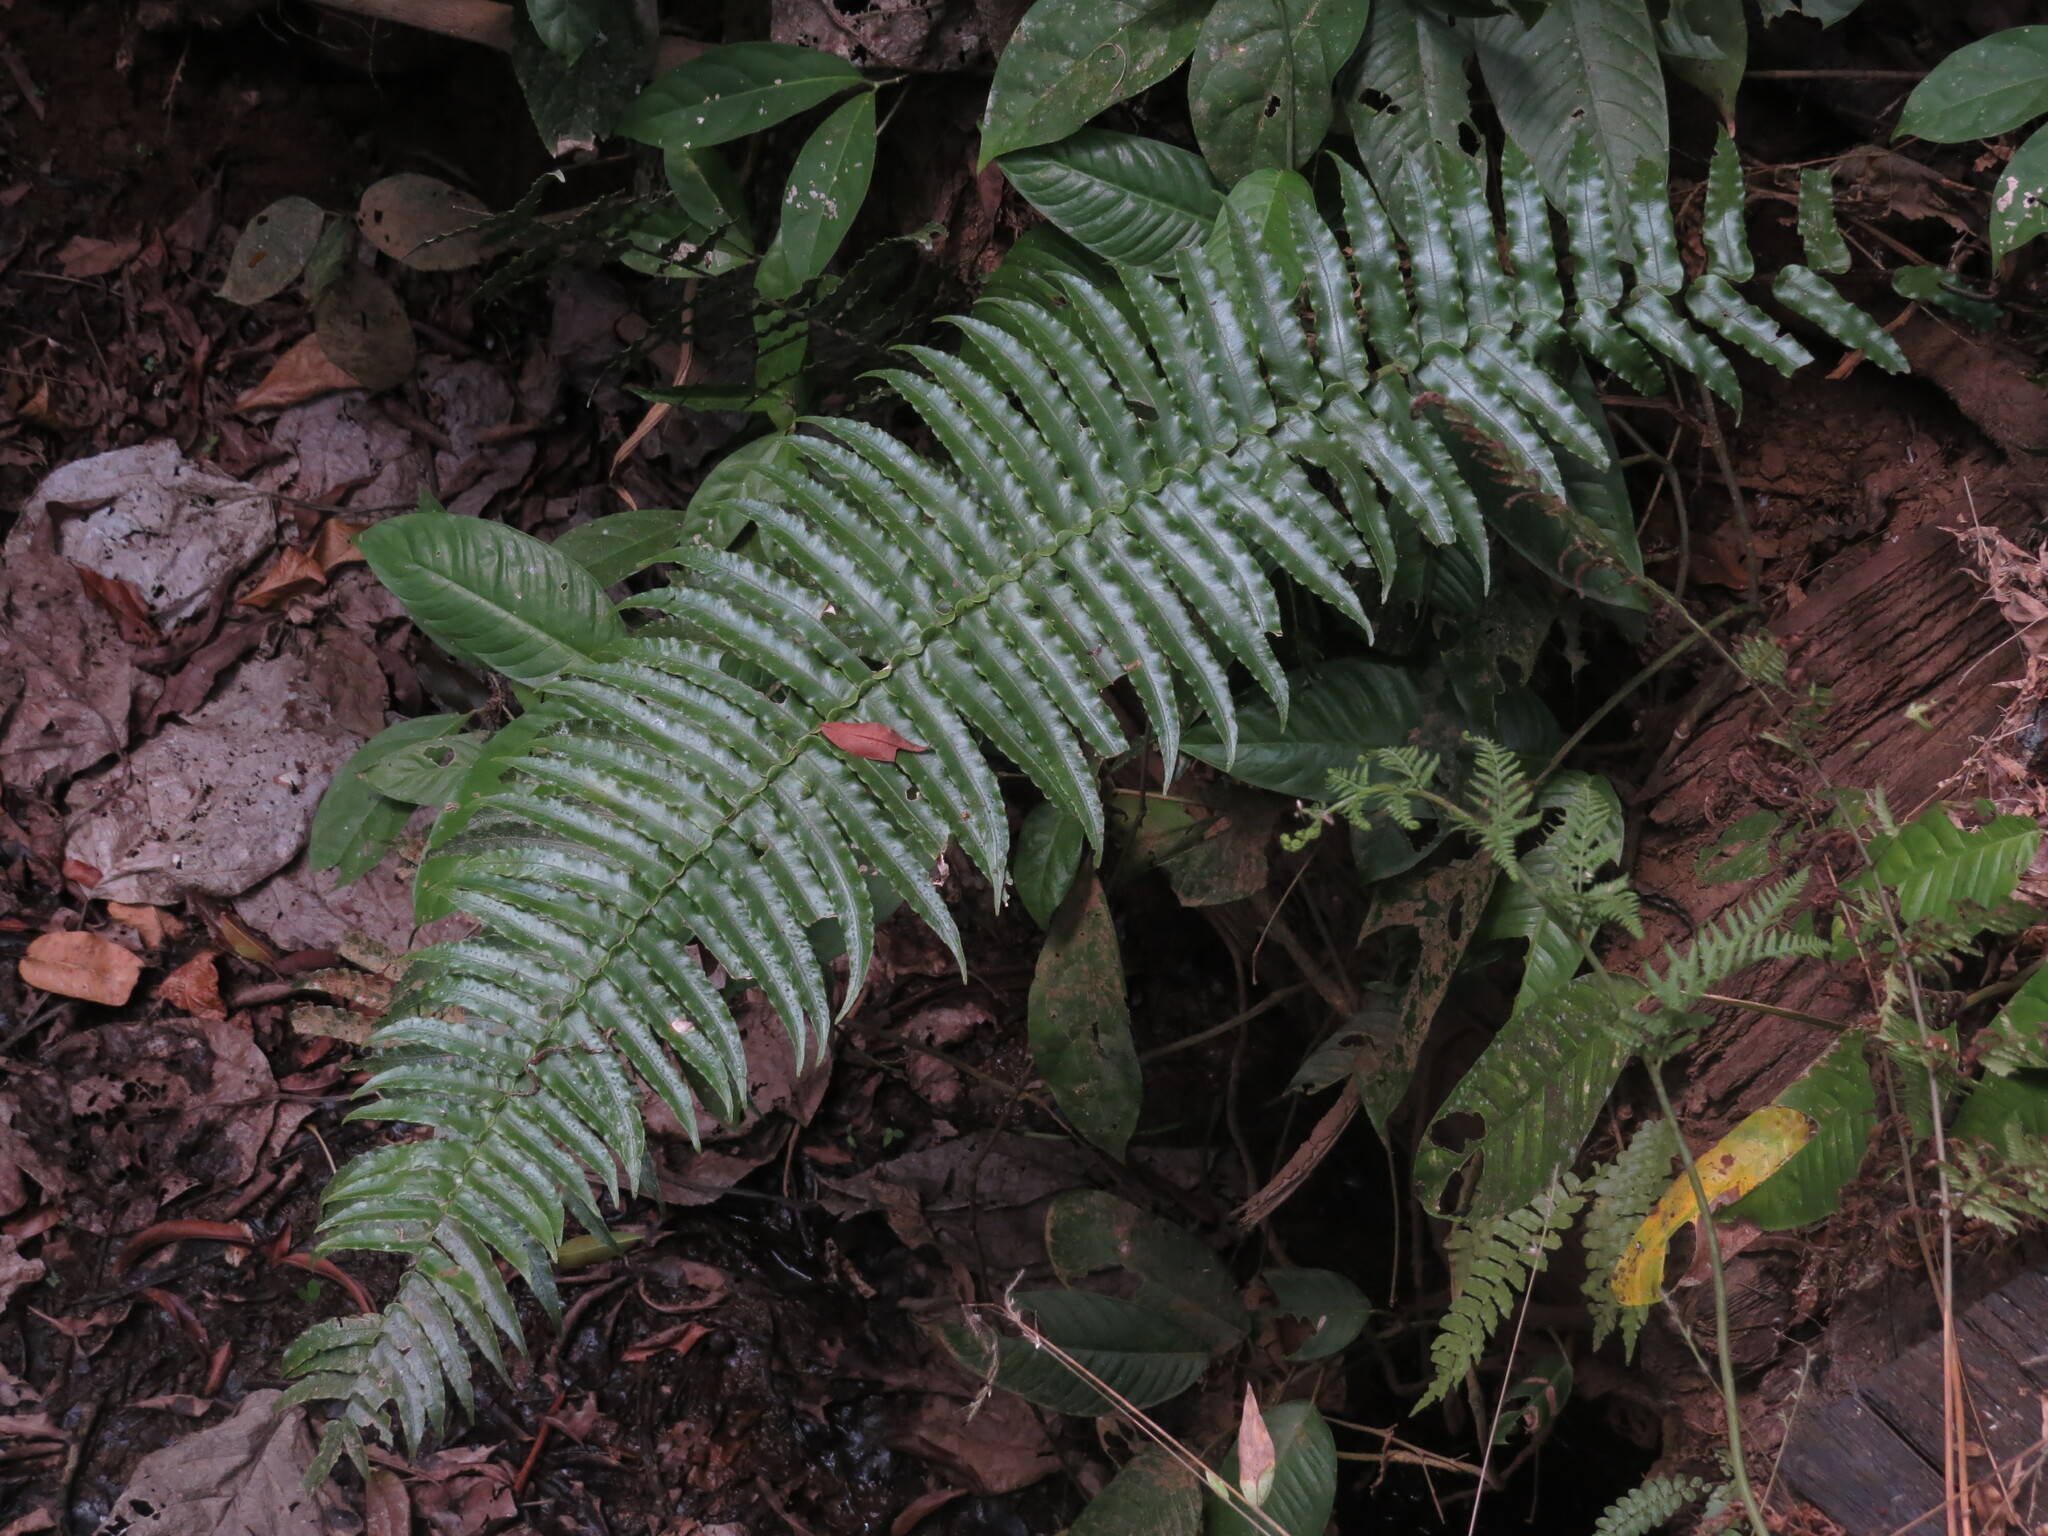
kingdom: Plantae
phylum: Tracheophyta
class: Polypodiopsida
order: Polypodiales
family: Lomariopsidaceae
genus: Cyclopeltis
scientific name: Cyclopeltis semicordata
